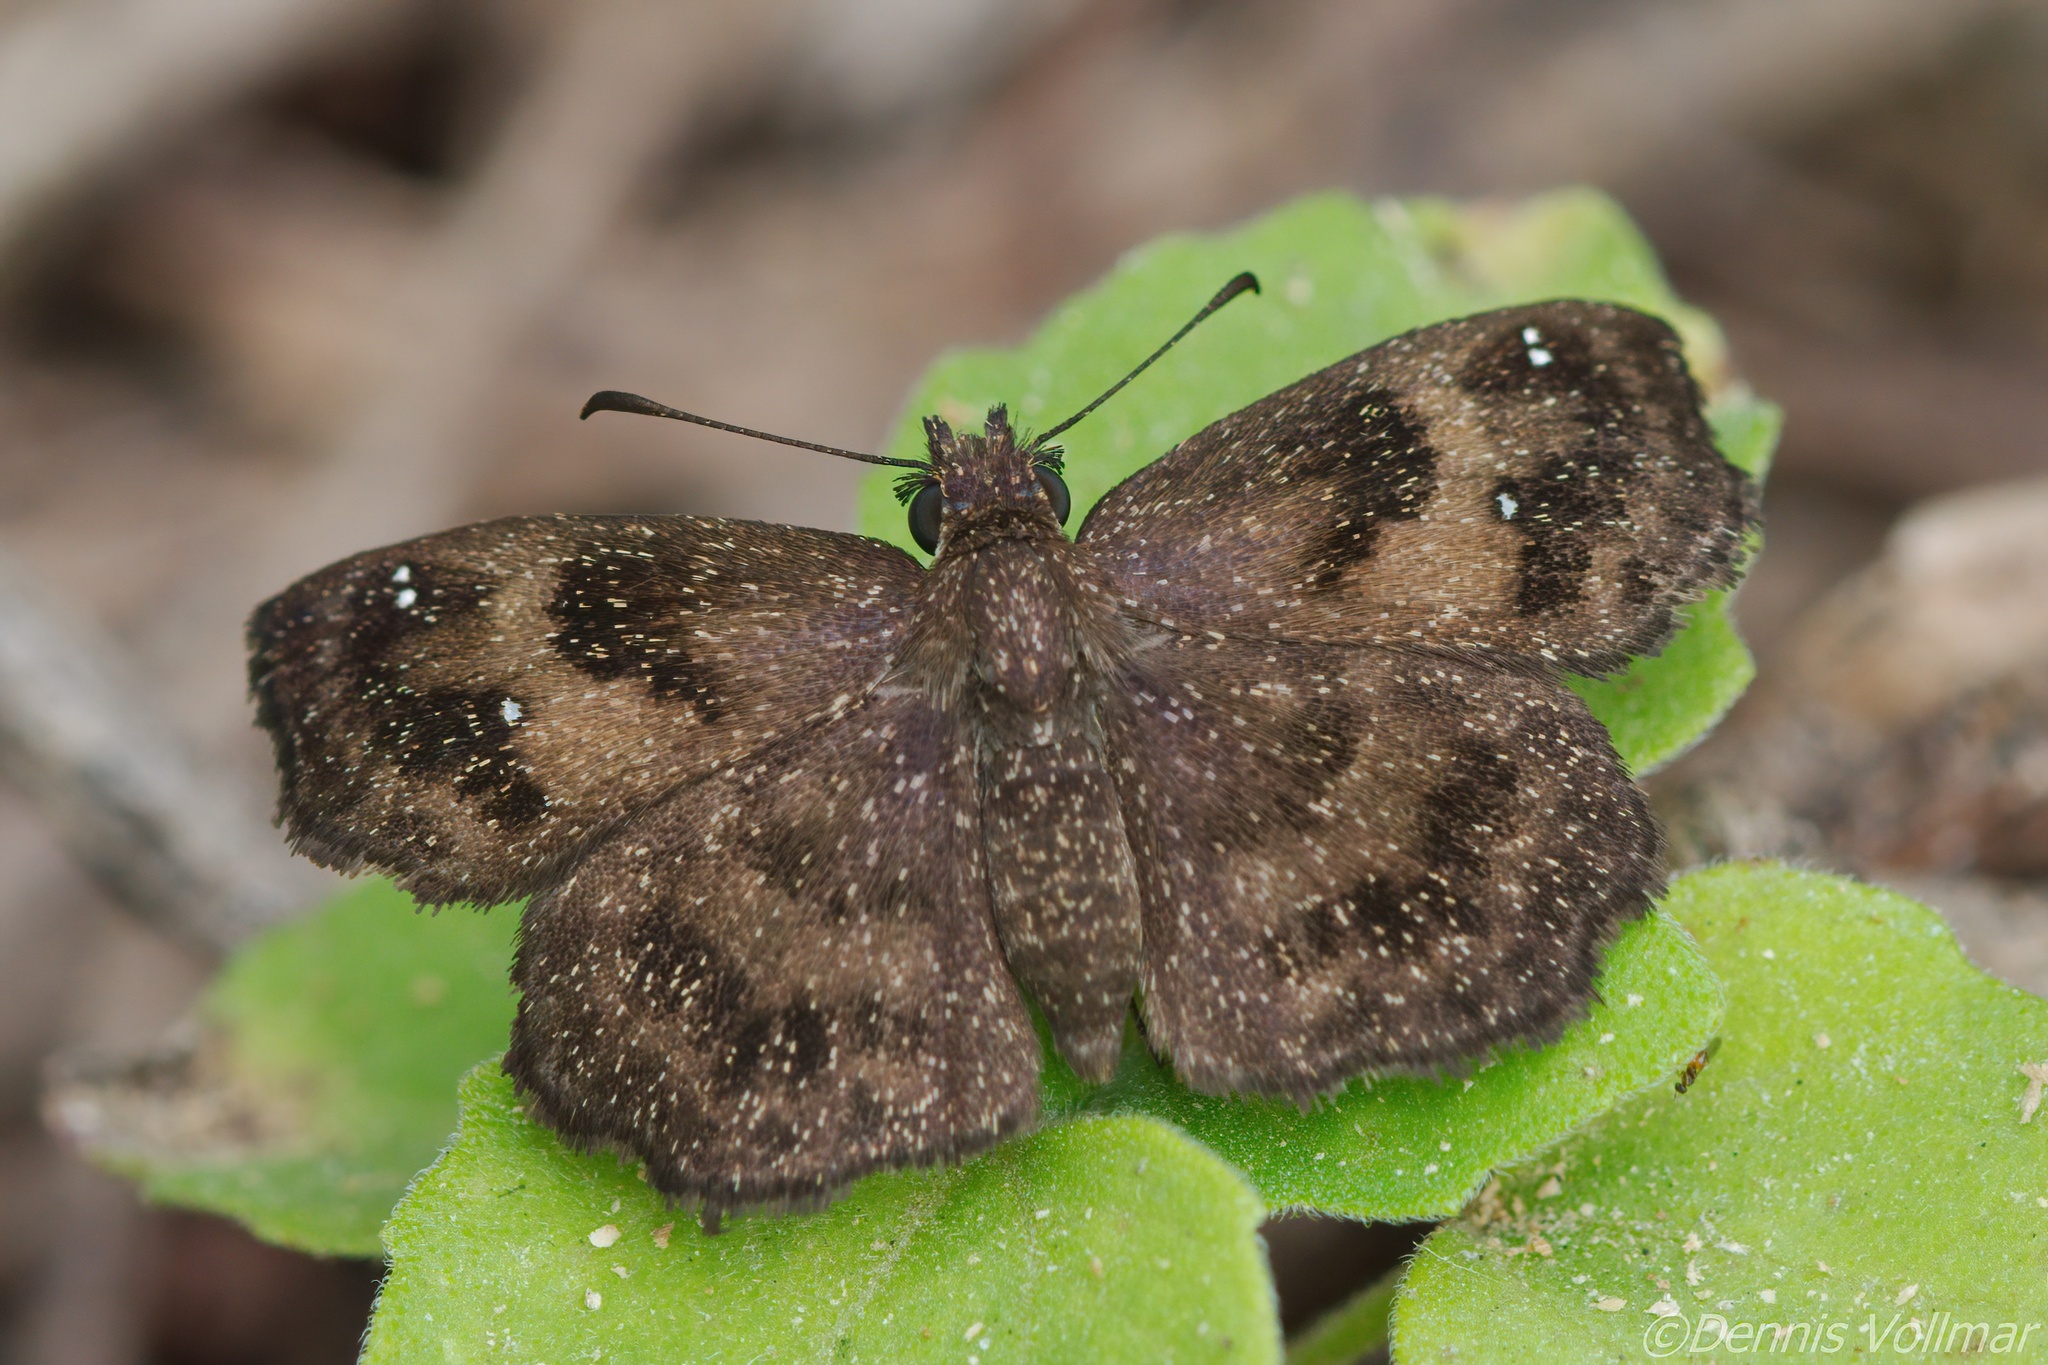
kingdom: Animalia
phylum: Arthropoda
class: Insecta
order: Lepidoptera
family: Hesperiidae
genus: Staphylus
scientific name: Staphylus mazans
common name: Mazans scallopwing
